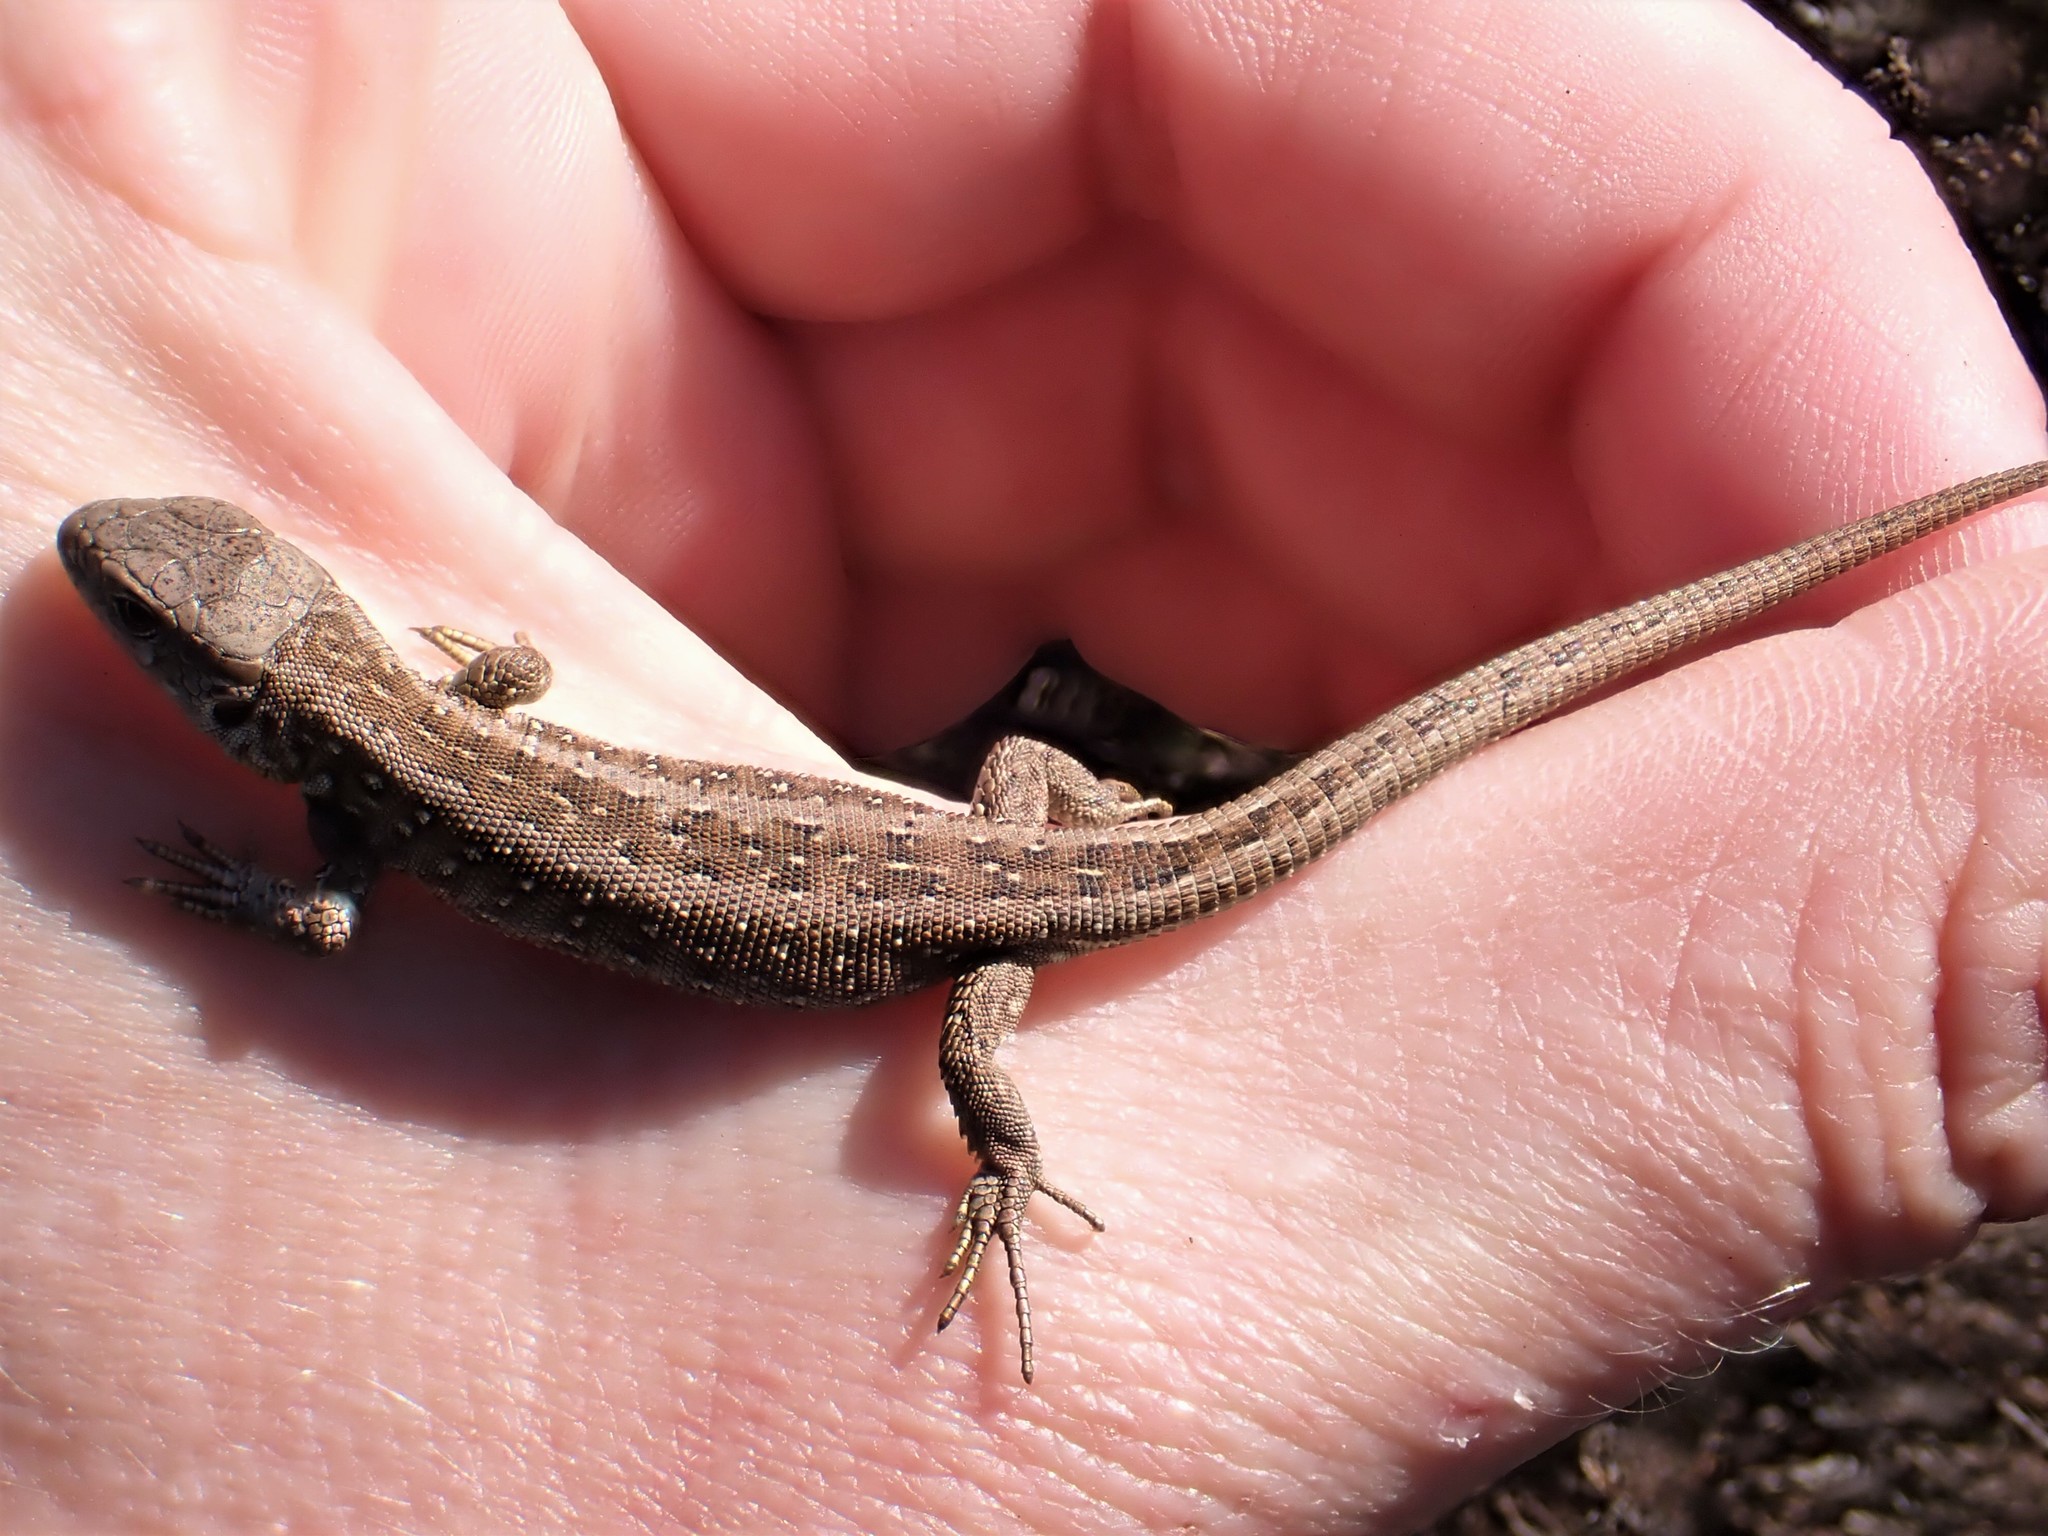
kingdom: Animalia
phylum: Chordata
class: Squamata
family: Lacertidae
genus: Lacerta
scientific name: Lacerta agilis
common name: Sand lizard
